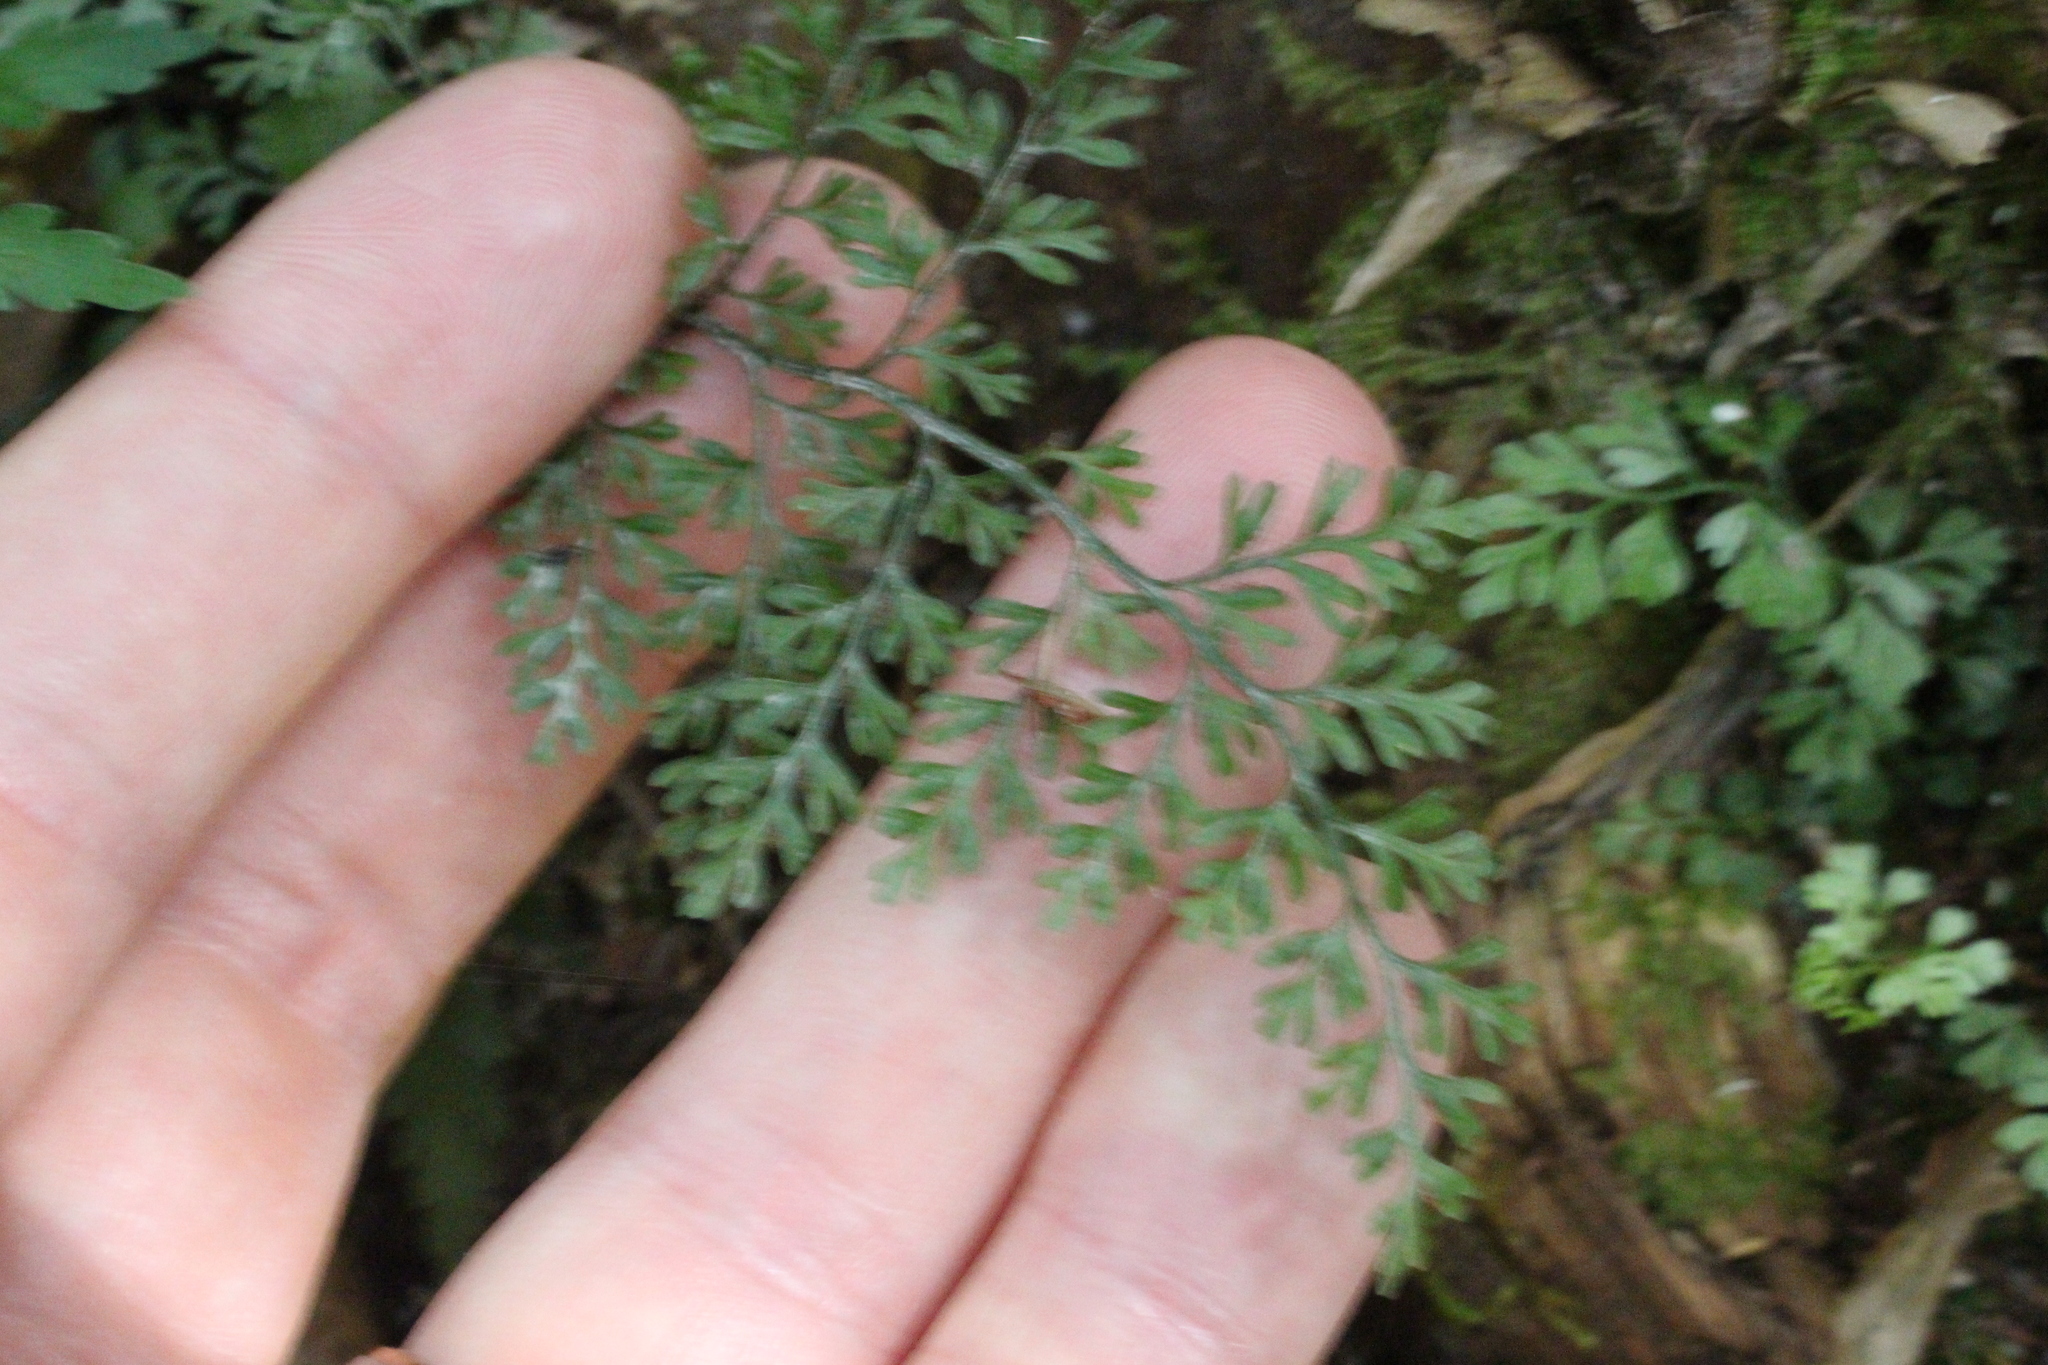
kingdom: Plantae
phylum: Tracheophyta
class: Polypodiopsida
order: Polypodiales
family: Aspleniaceae
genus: Asplenium
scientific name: Asplenium hookerianum
